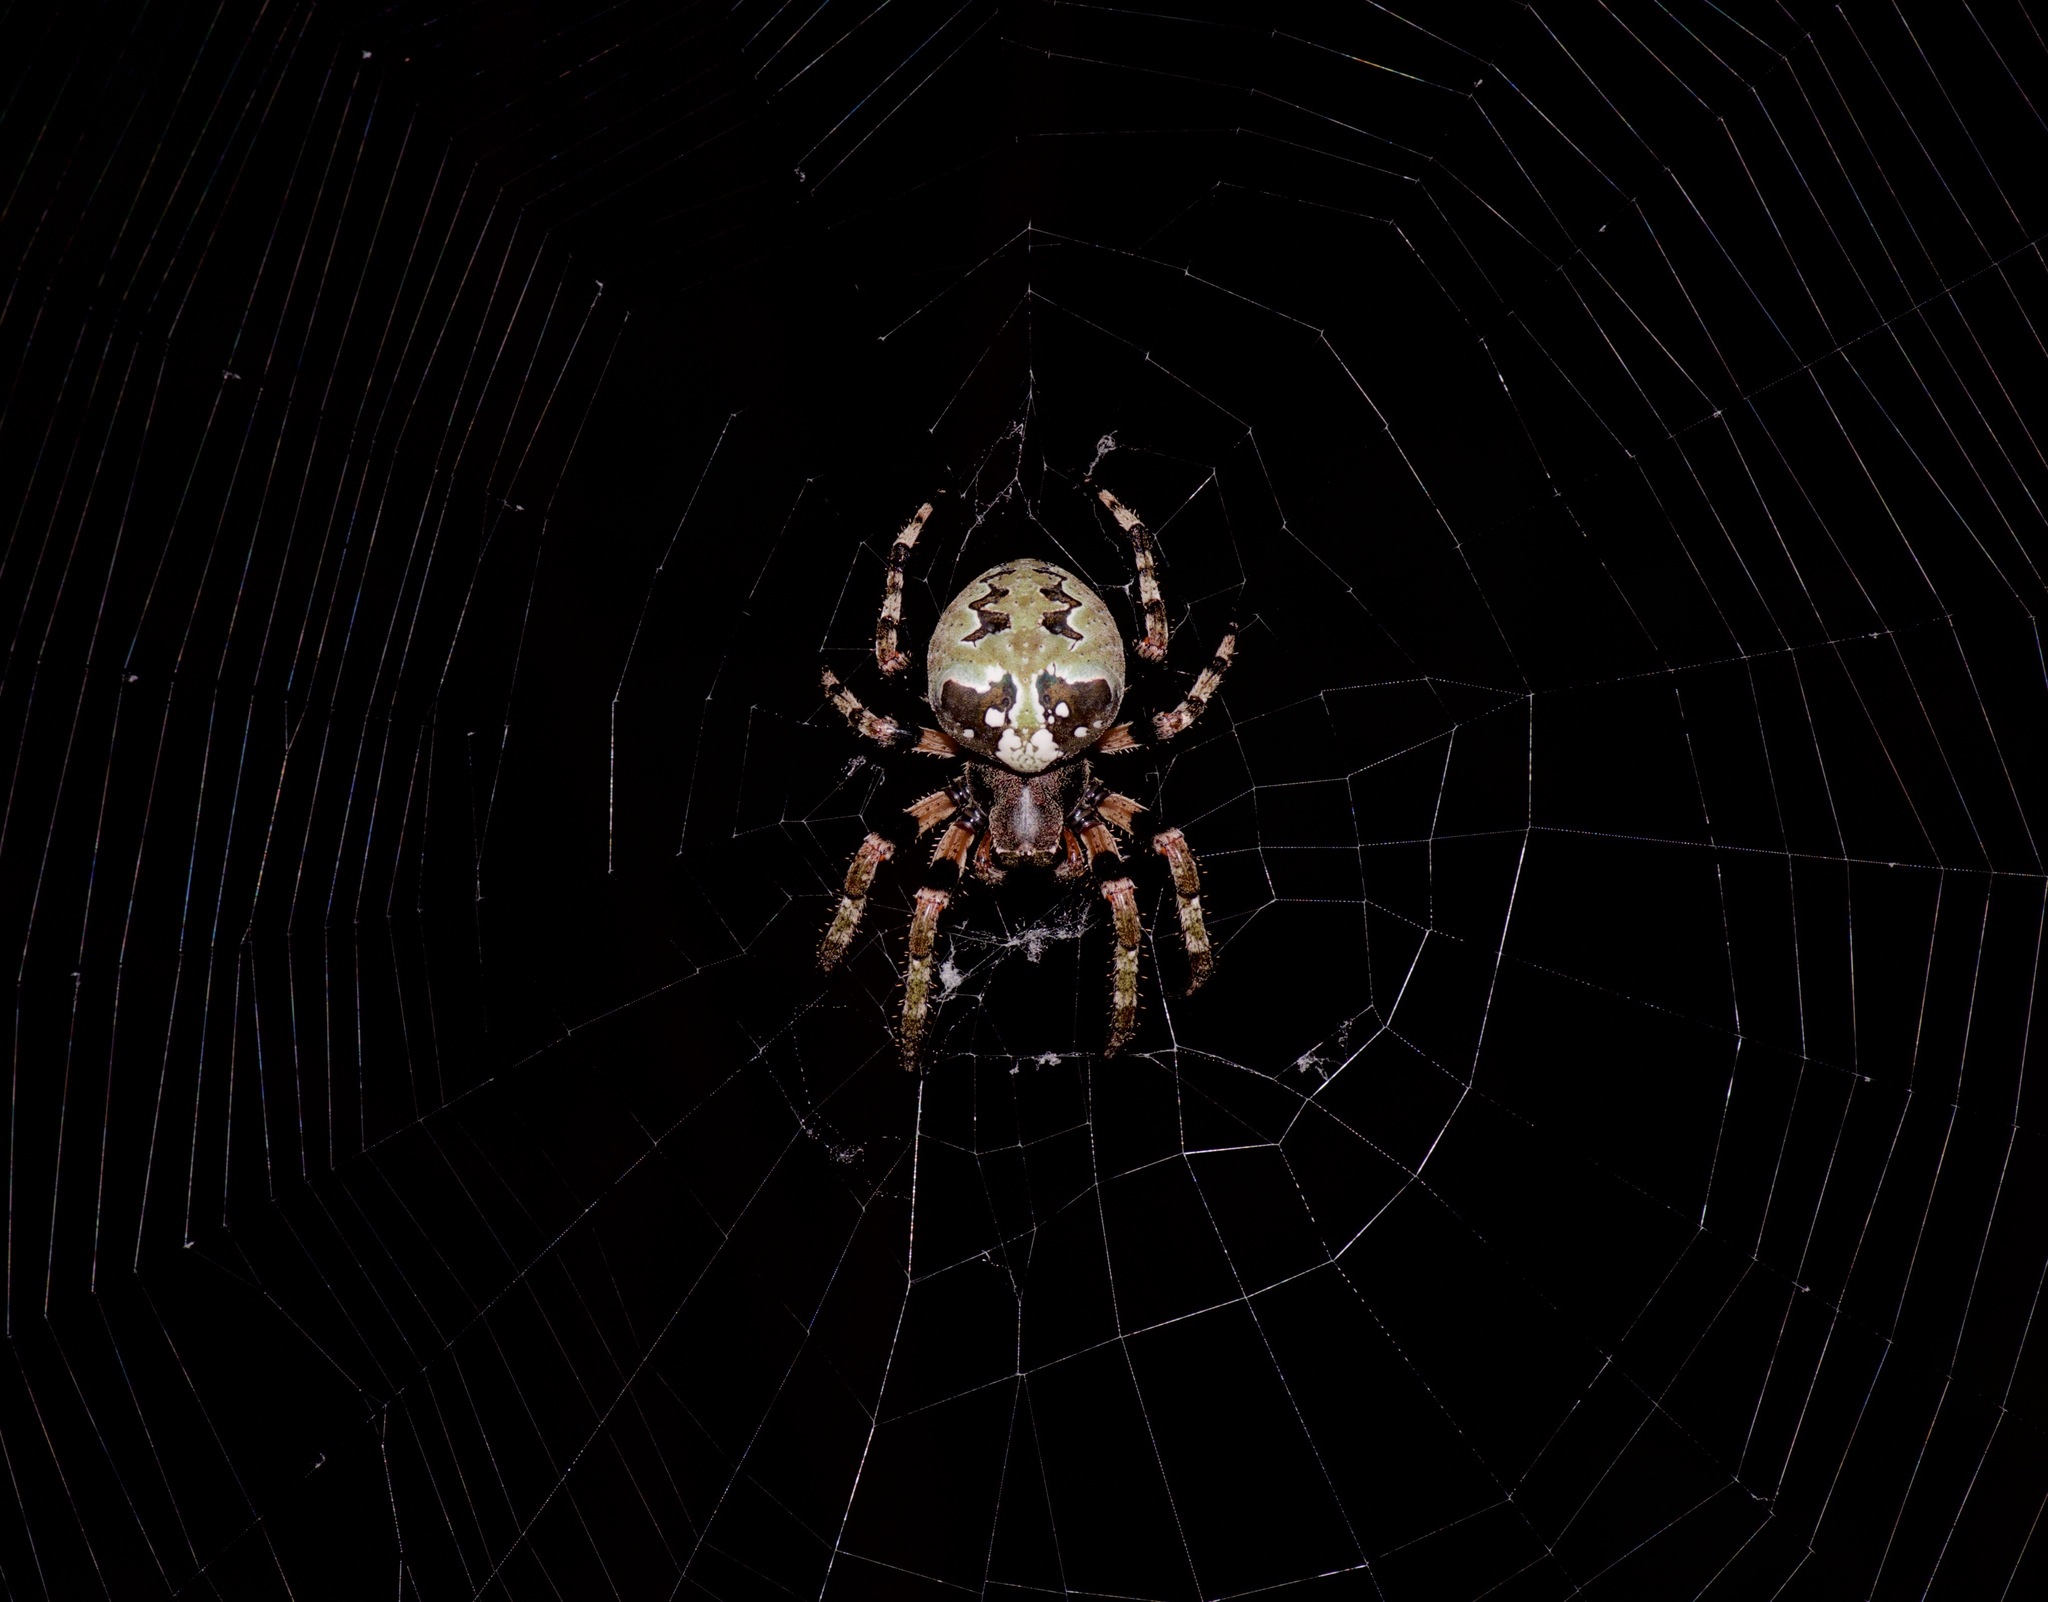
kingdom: Animalia
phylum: Arthropoda
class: Arachnida
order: Araneae
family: Araneidae
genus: Araneus
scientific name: Araneus bicentenarius
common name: Giant lichen orbweaver
